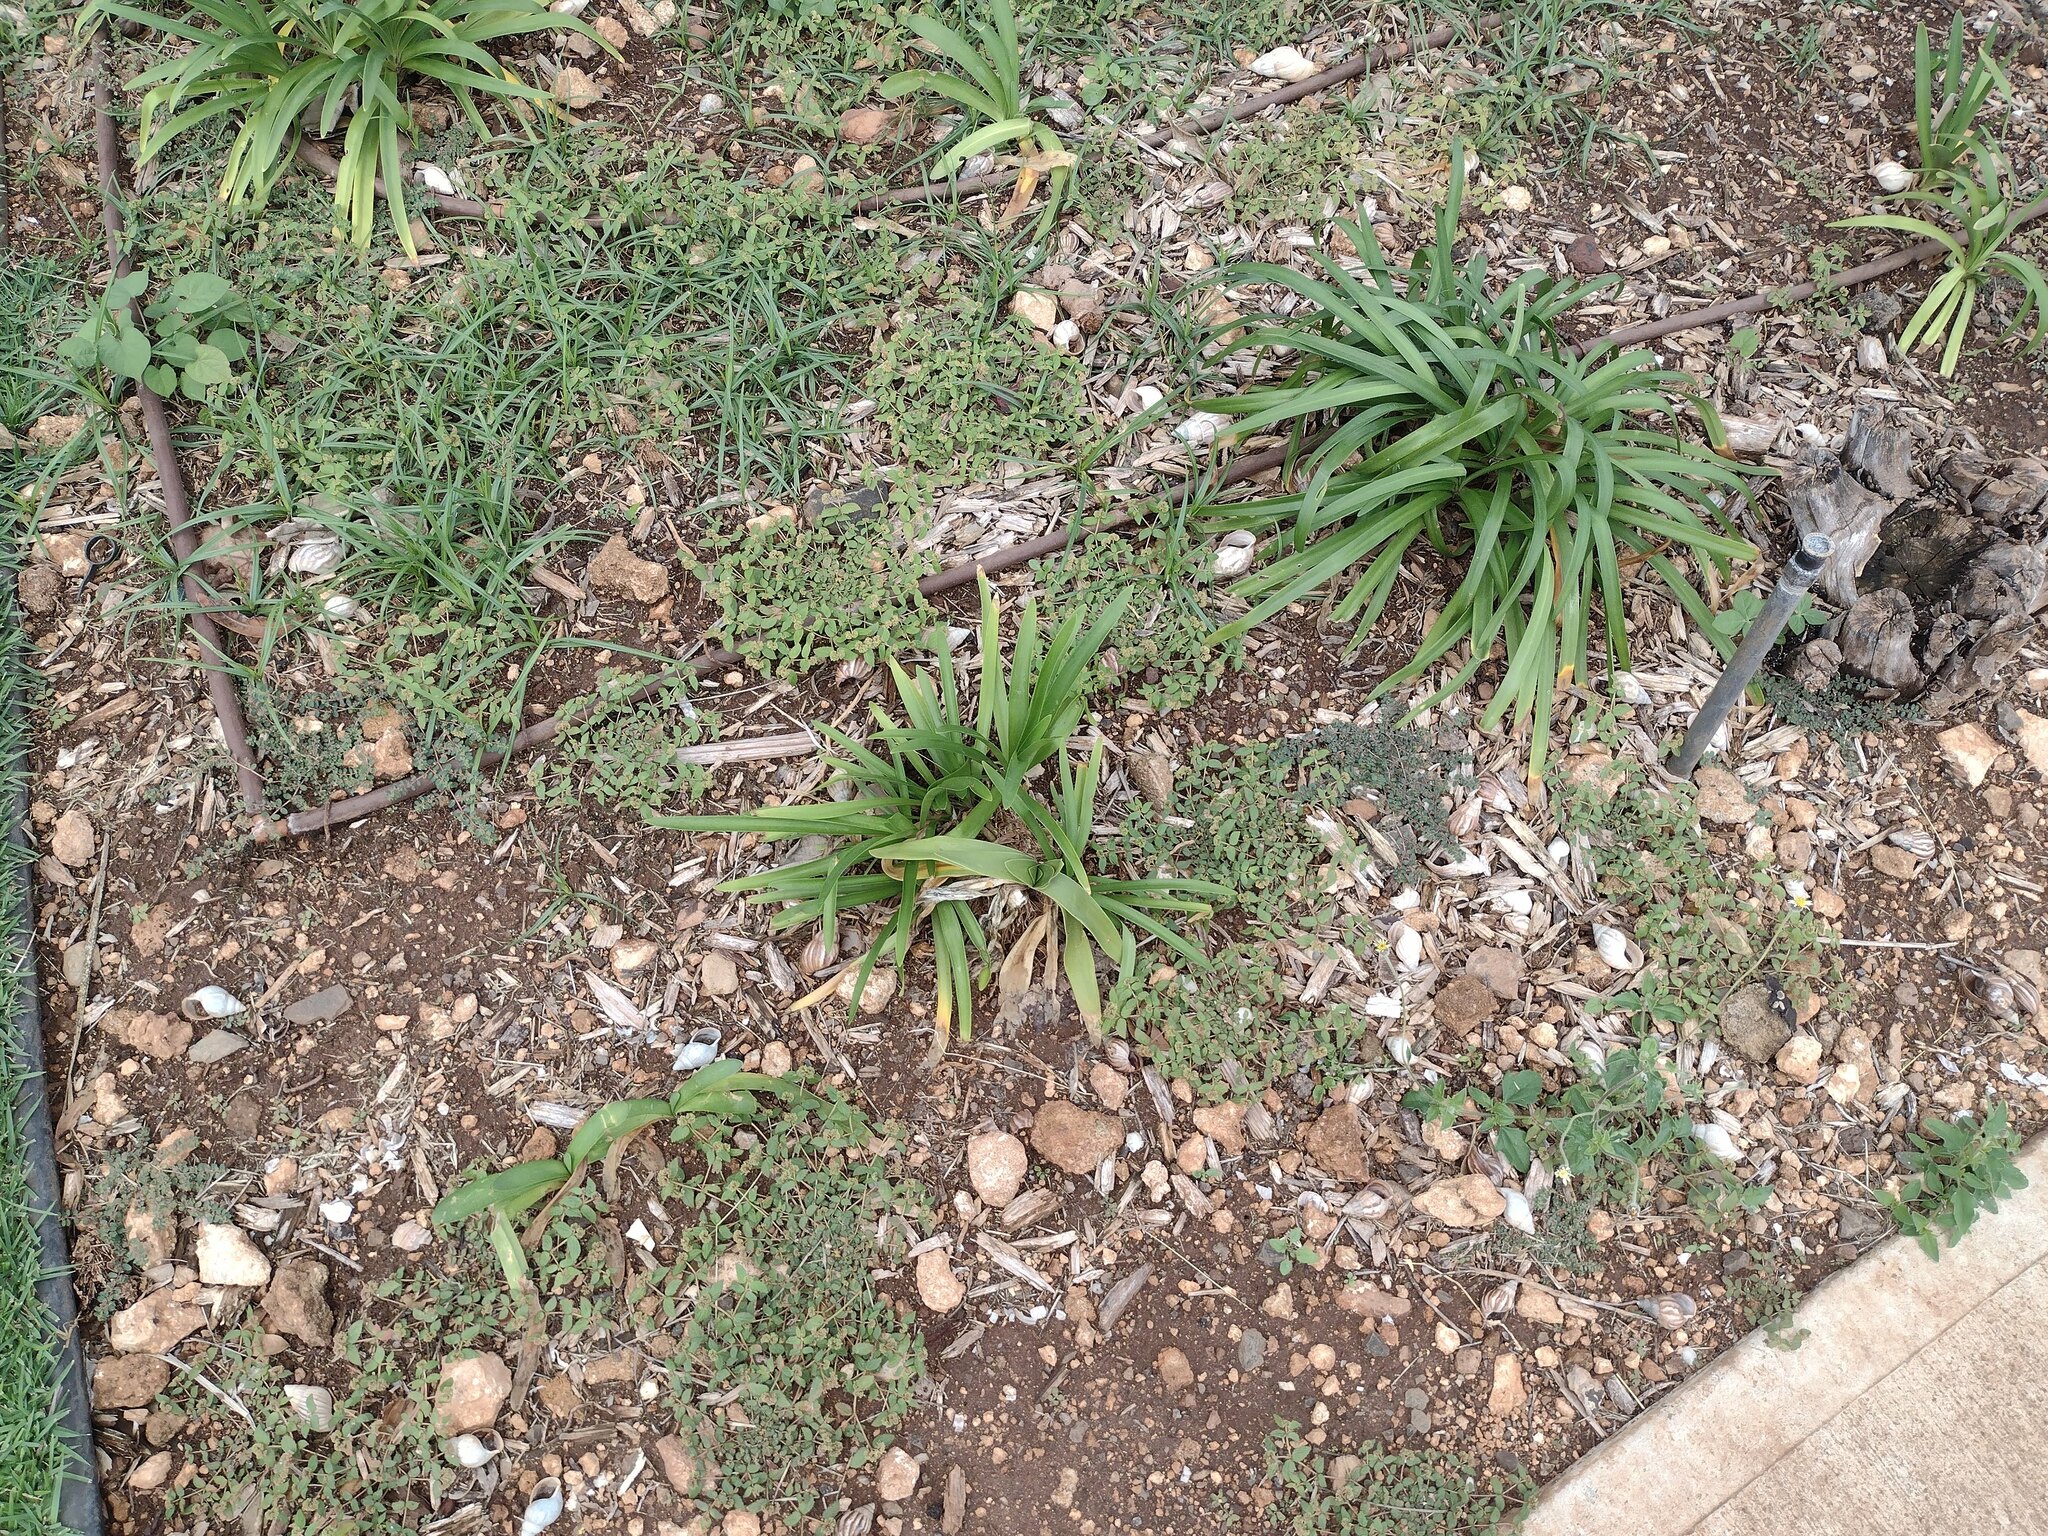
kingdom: Plantae
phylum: Tracheophyta
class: Magnoliopsida
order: Malpighiales
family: Euphorbiaceae
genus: Euphorbia
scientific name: Euphorbia ophthalmica
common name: Florida hammock sandmat
